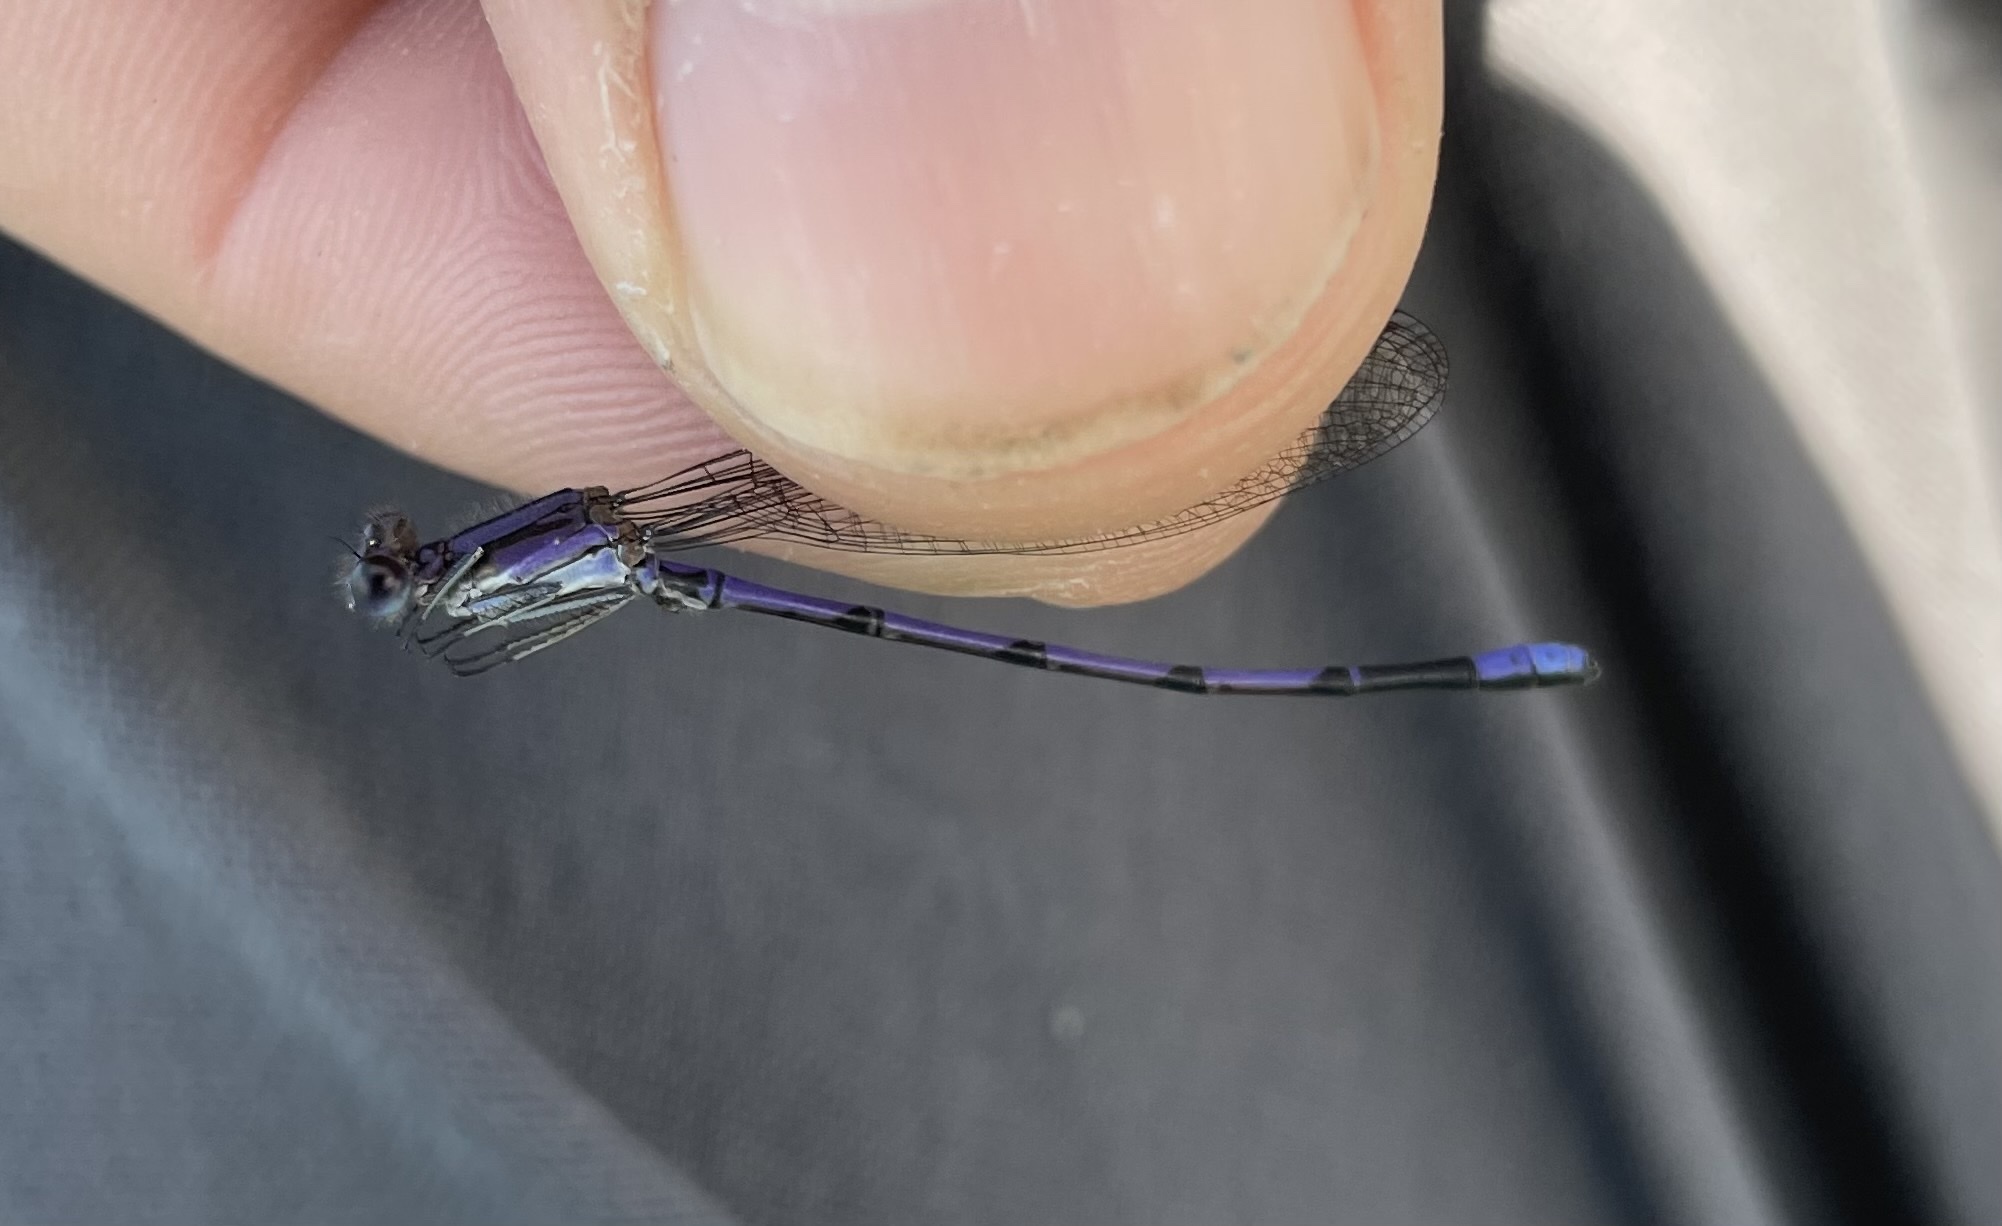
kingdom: Animalia
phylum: Arthropoda
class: Insecta
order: Odonata
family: Coenagrionidae
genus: Argia
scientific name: Argia fumipennis
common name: Variable dancer
